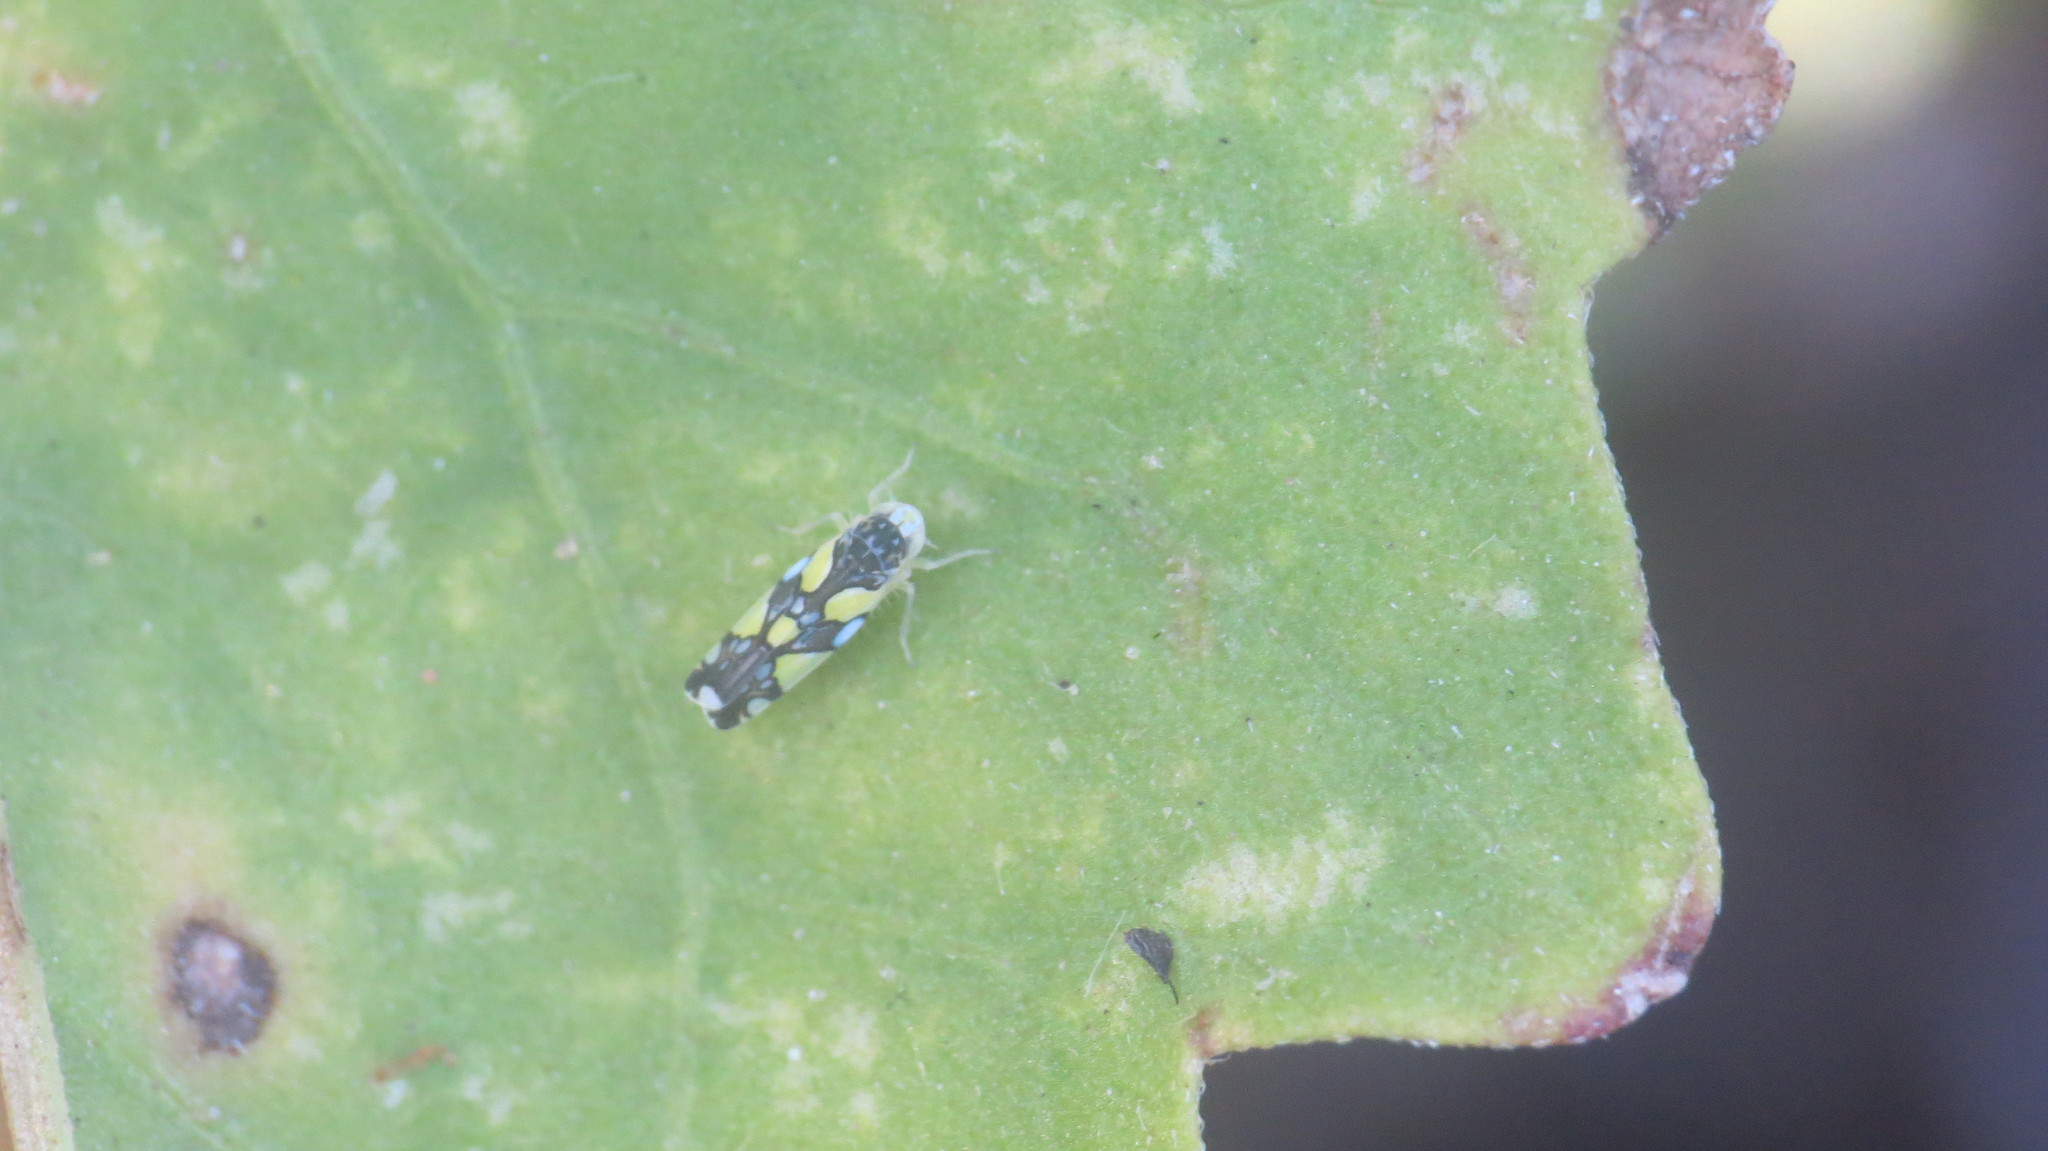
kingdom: Animalia
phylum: Arthropoda
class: Insecta
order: Hemiptera
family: Cicadellidae
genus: Protalebrella
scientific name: Protalebrella brasiliensis
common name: Brasilian leafhopper
